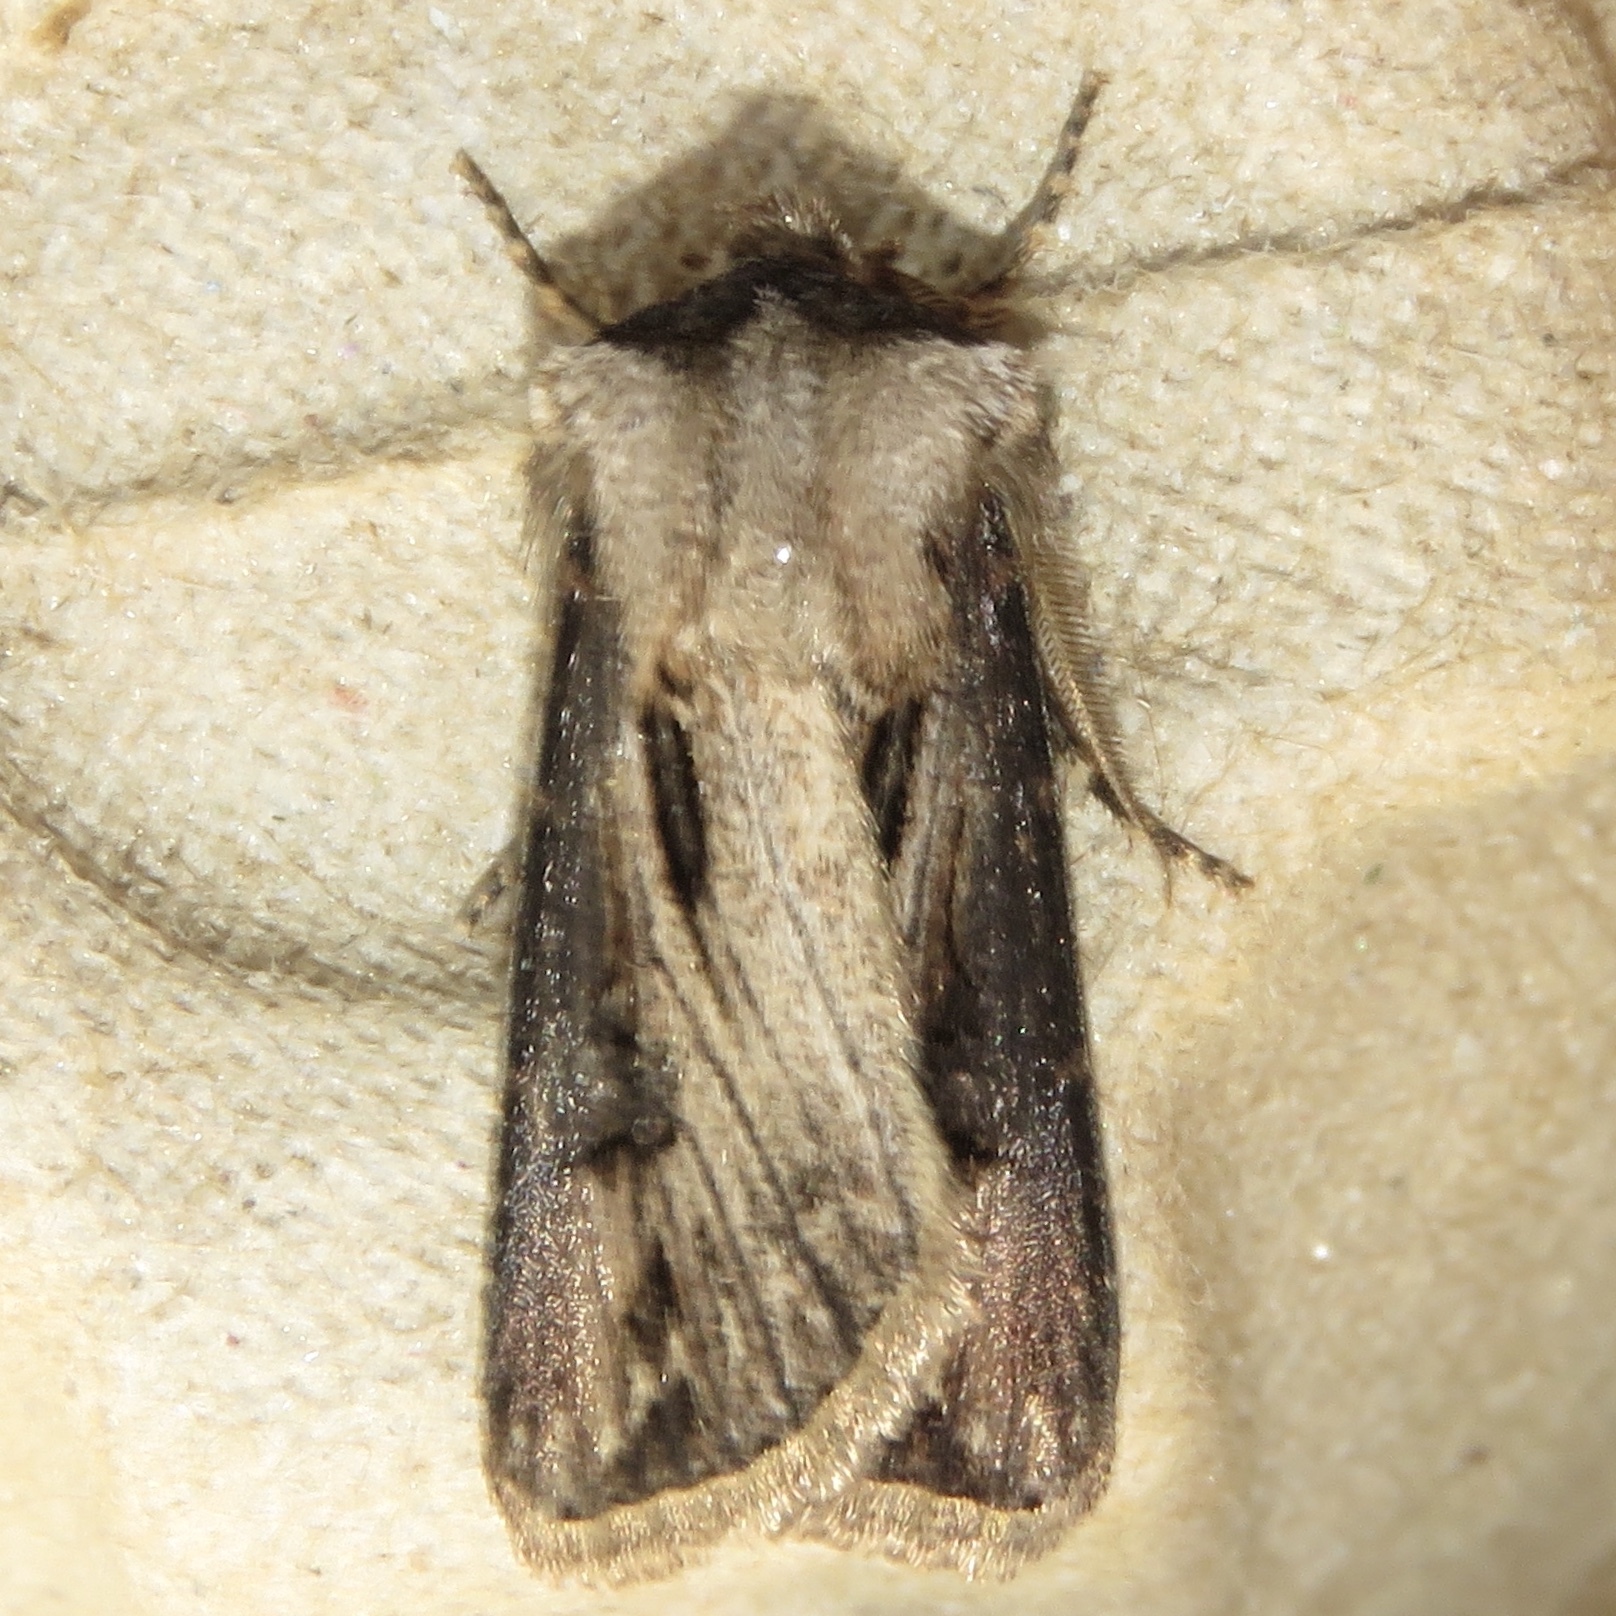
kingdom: Animalia
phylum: Arthropoda
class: Insecta
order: Lepidoptera
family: Noctuidae
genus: Agrotis
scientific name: Agrotis venerabilis
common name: Venerable dart
